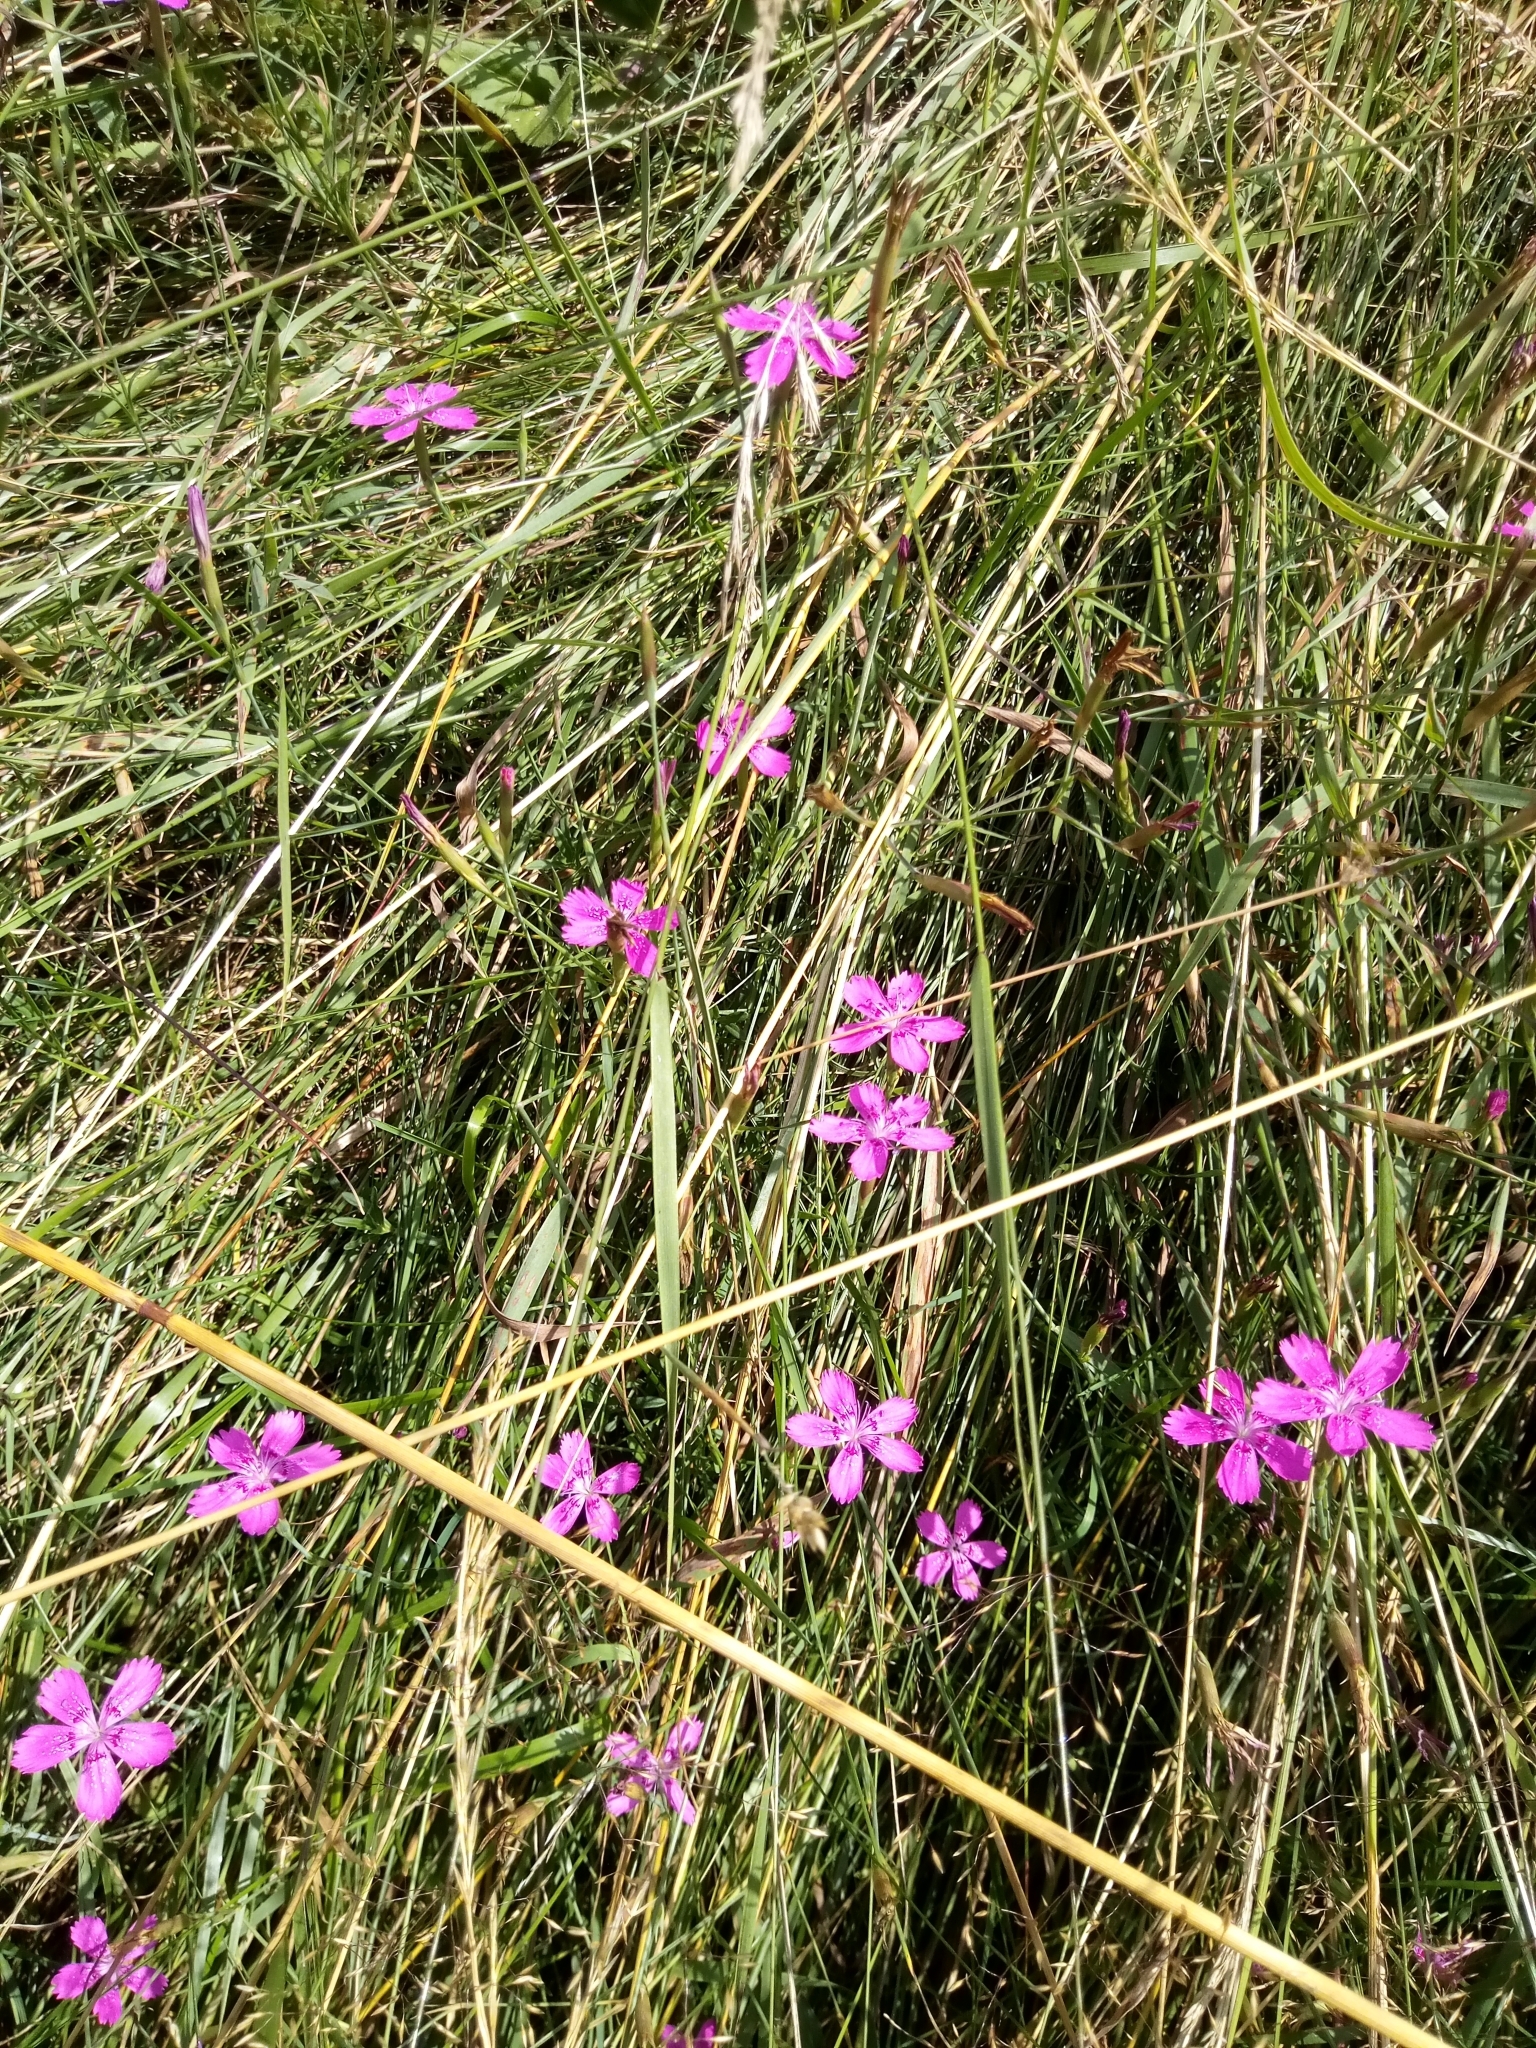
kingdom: Plantae
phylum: Tracheophyta
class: Magnoliopsida
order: Caryophyllales
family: Caryophyllaceae
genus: Dianthus
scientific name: Dianthus deltoides
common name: Maiden pink
